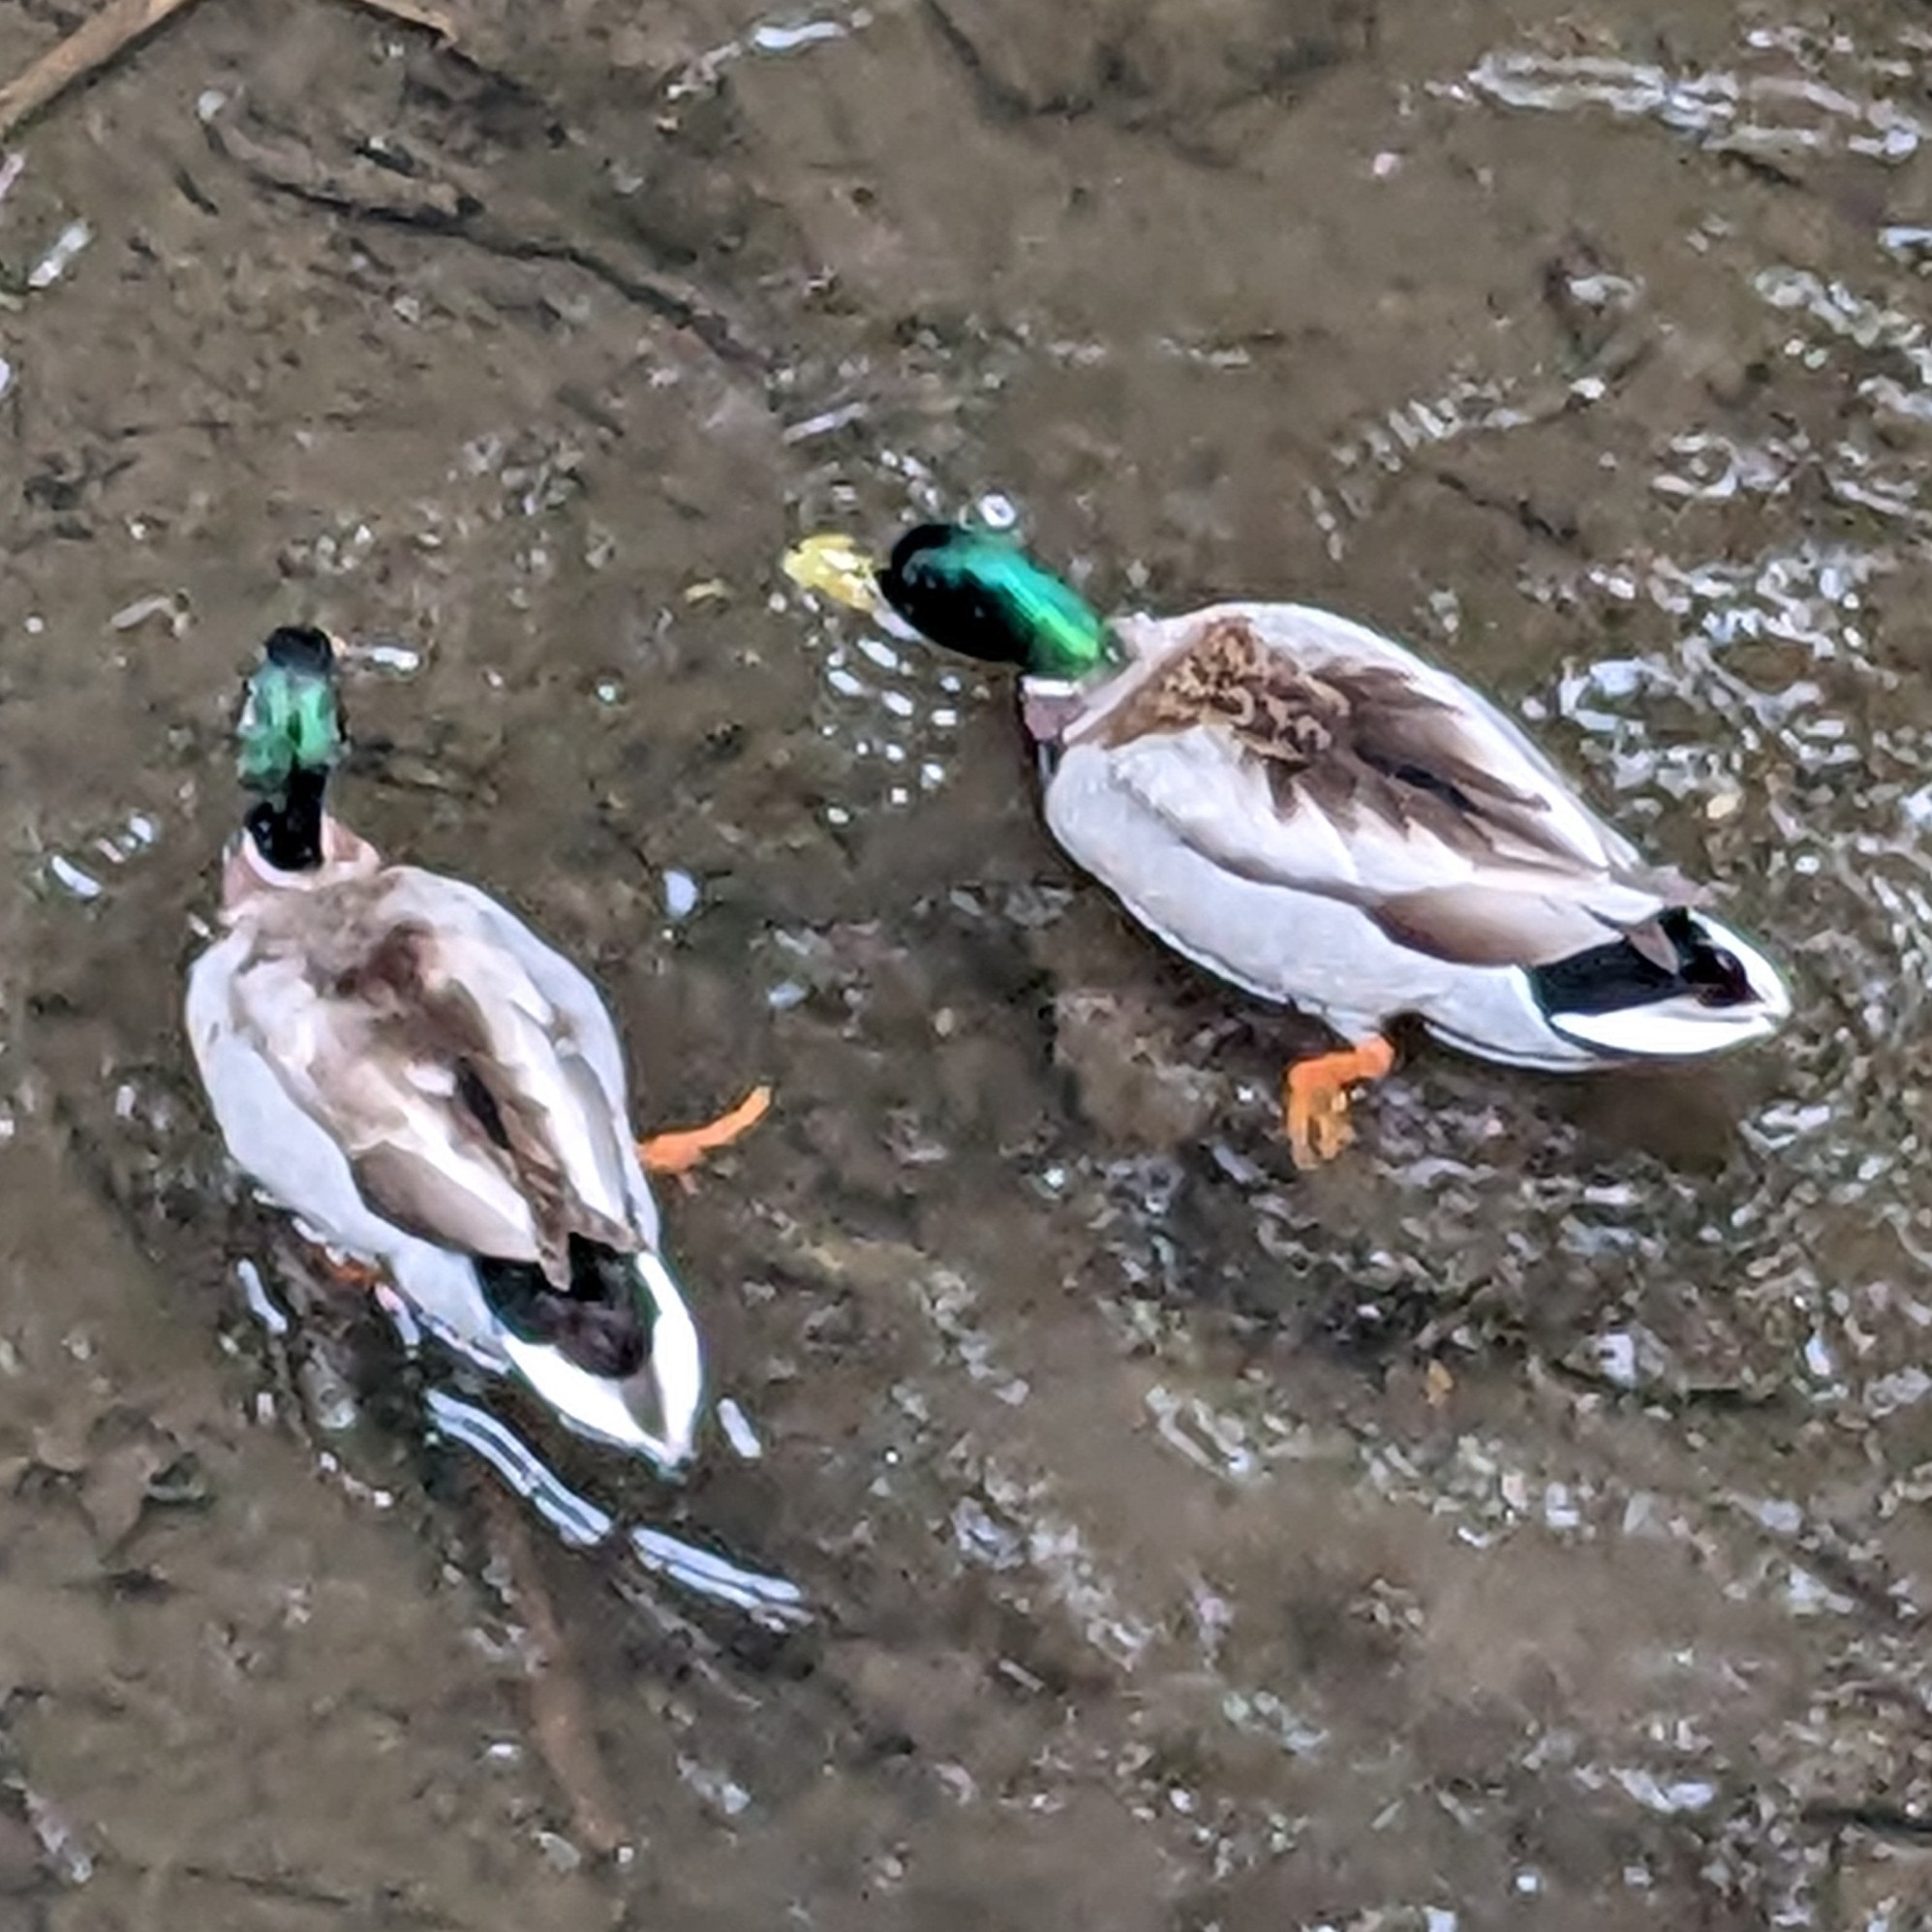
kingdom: Animalia
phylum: Chordata
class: Aves
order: Anseriformes
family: Anatidae
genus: Anas
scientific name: Anas platyrhynchos
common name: Mallard
